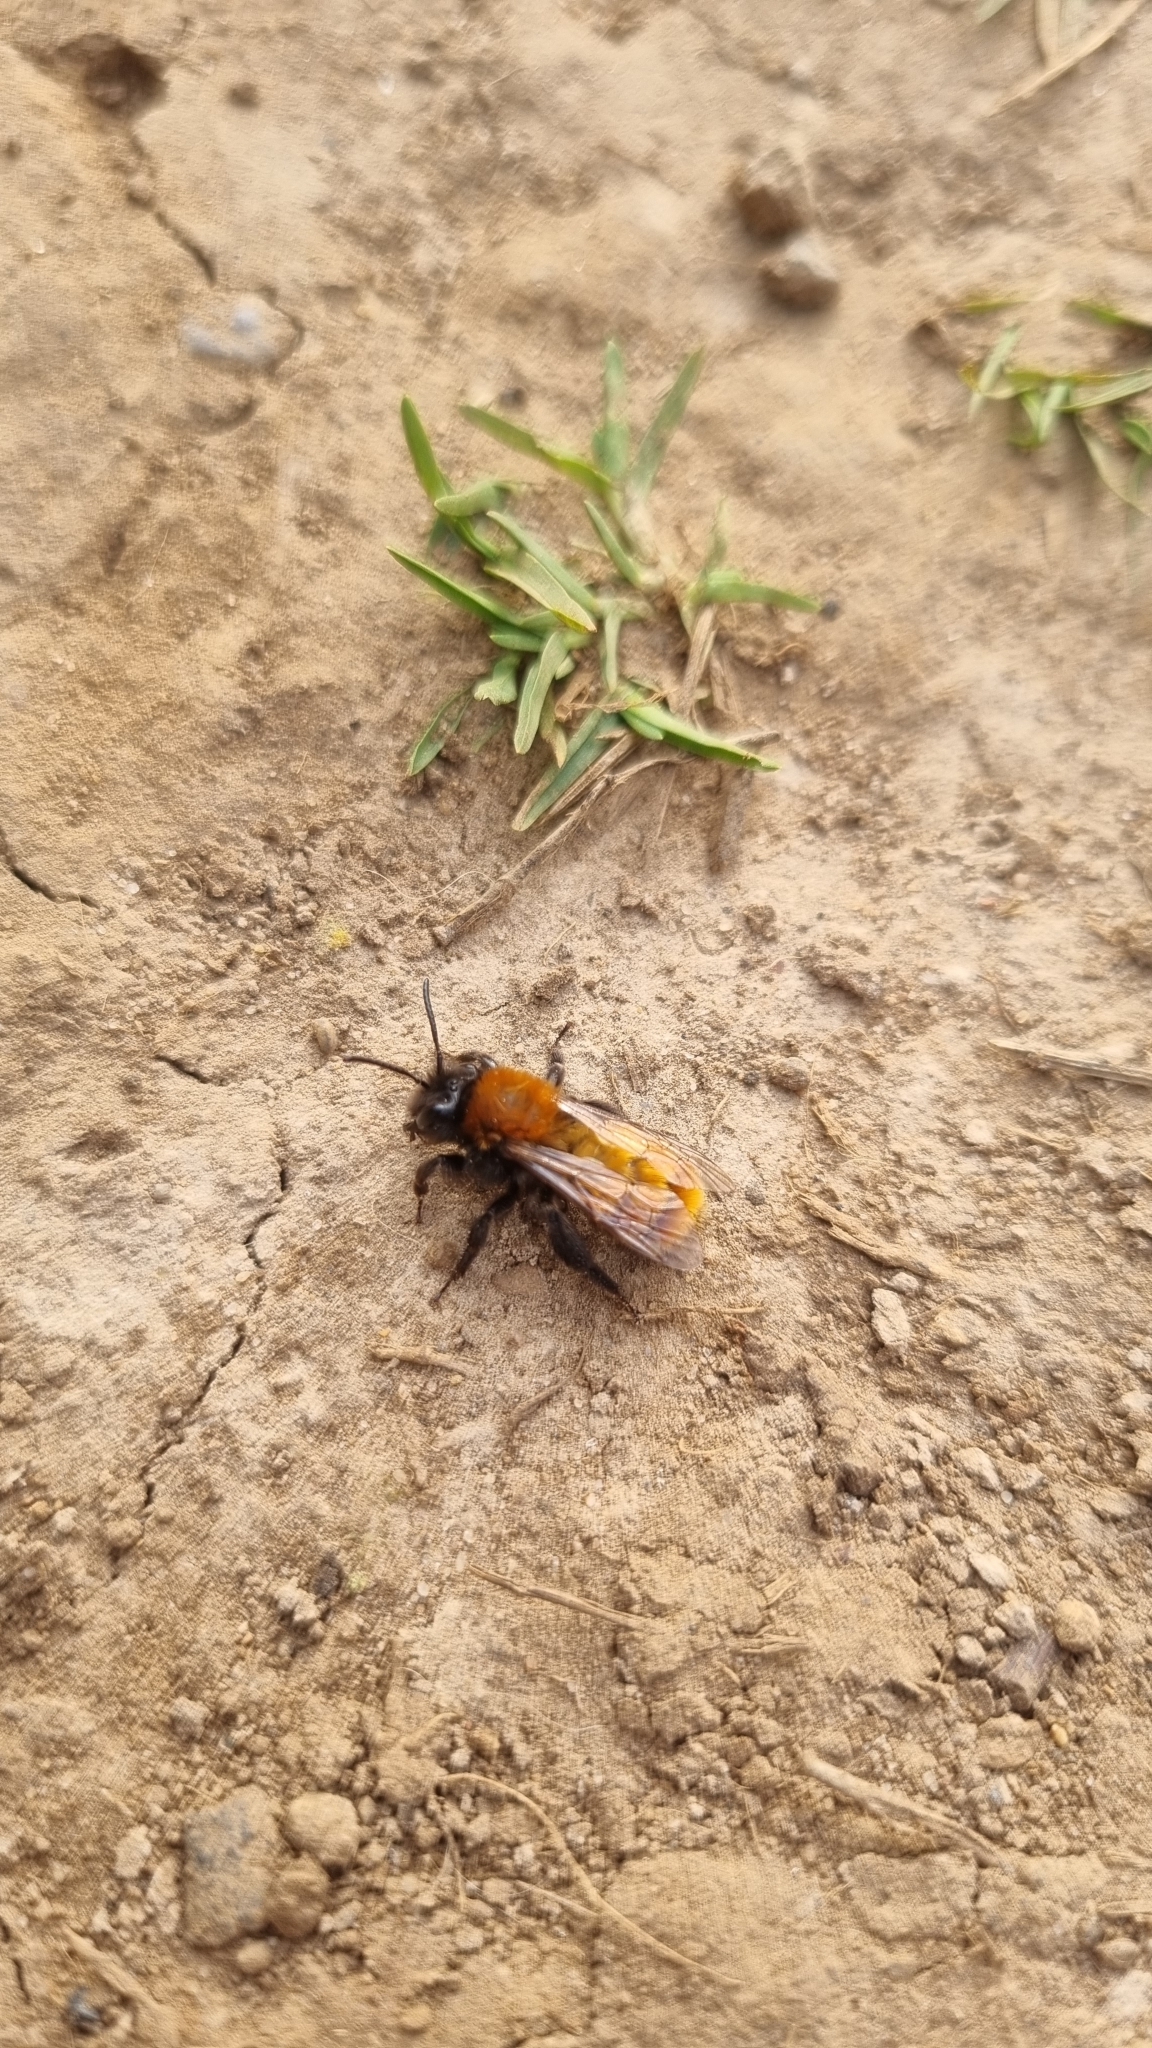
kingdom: Animalia
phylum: Arthropoda
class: Insecta
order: Hymenoptera
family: Andrenidae
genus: Andrena
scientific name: Andrena fulva
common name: Tawny mining bee
